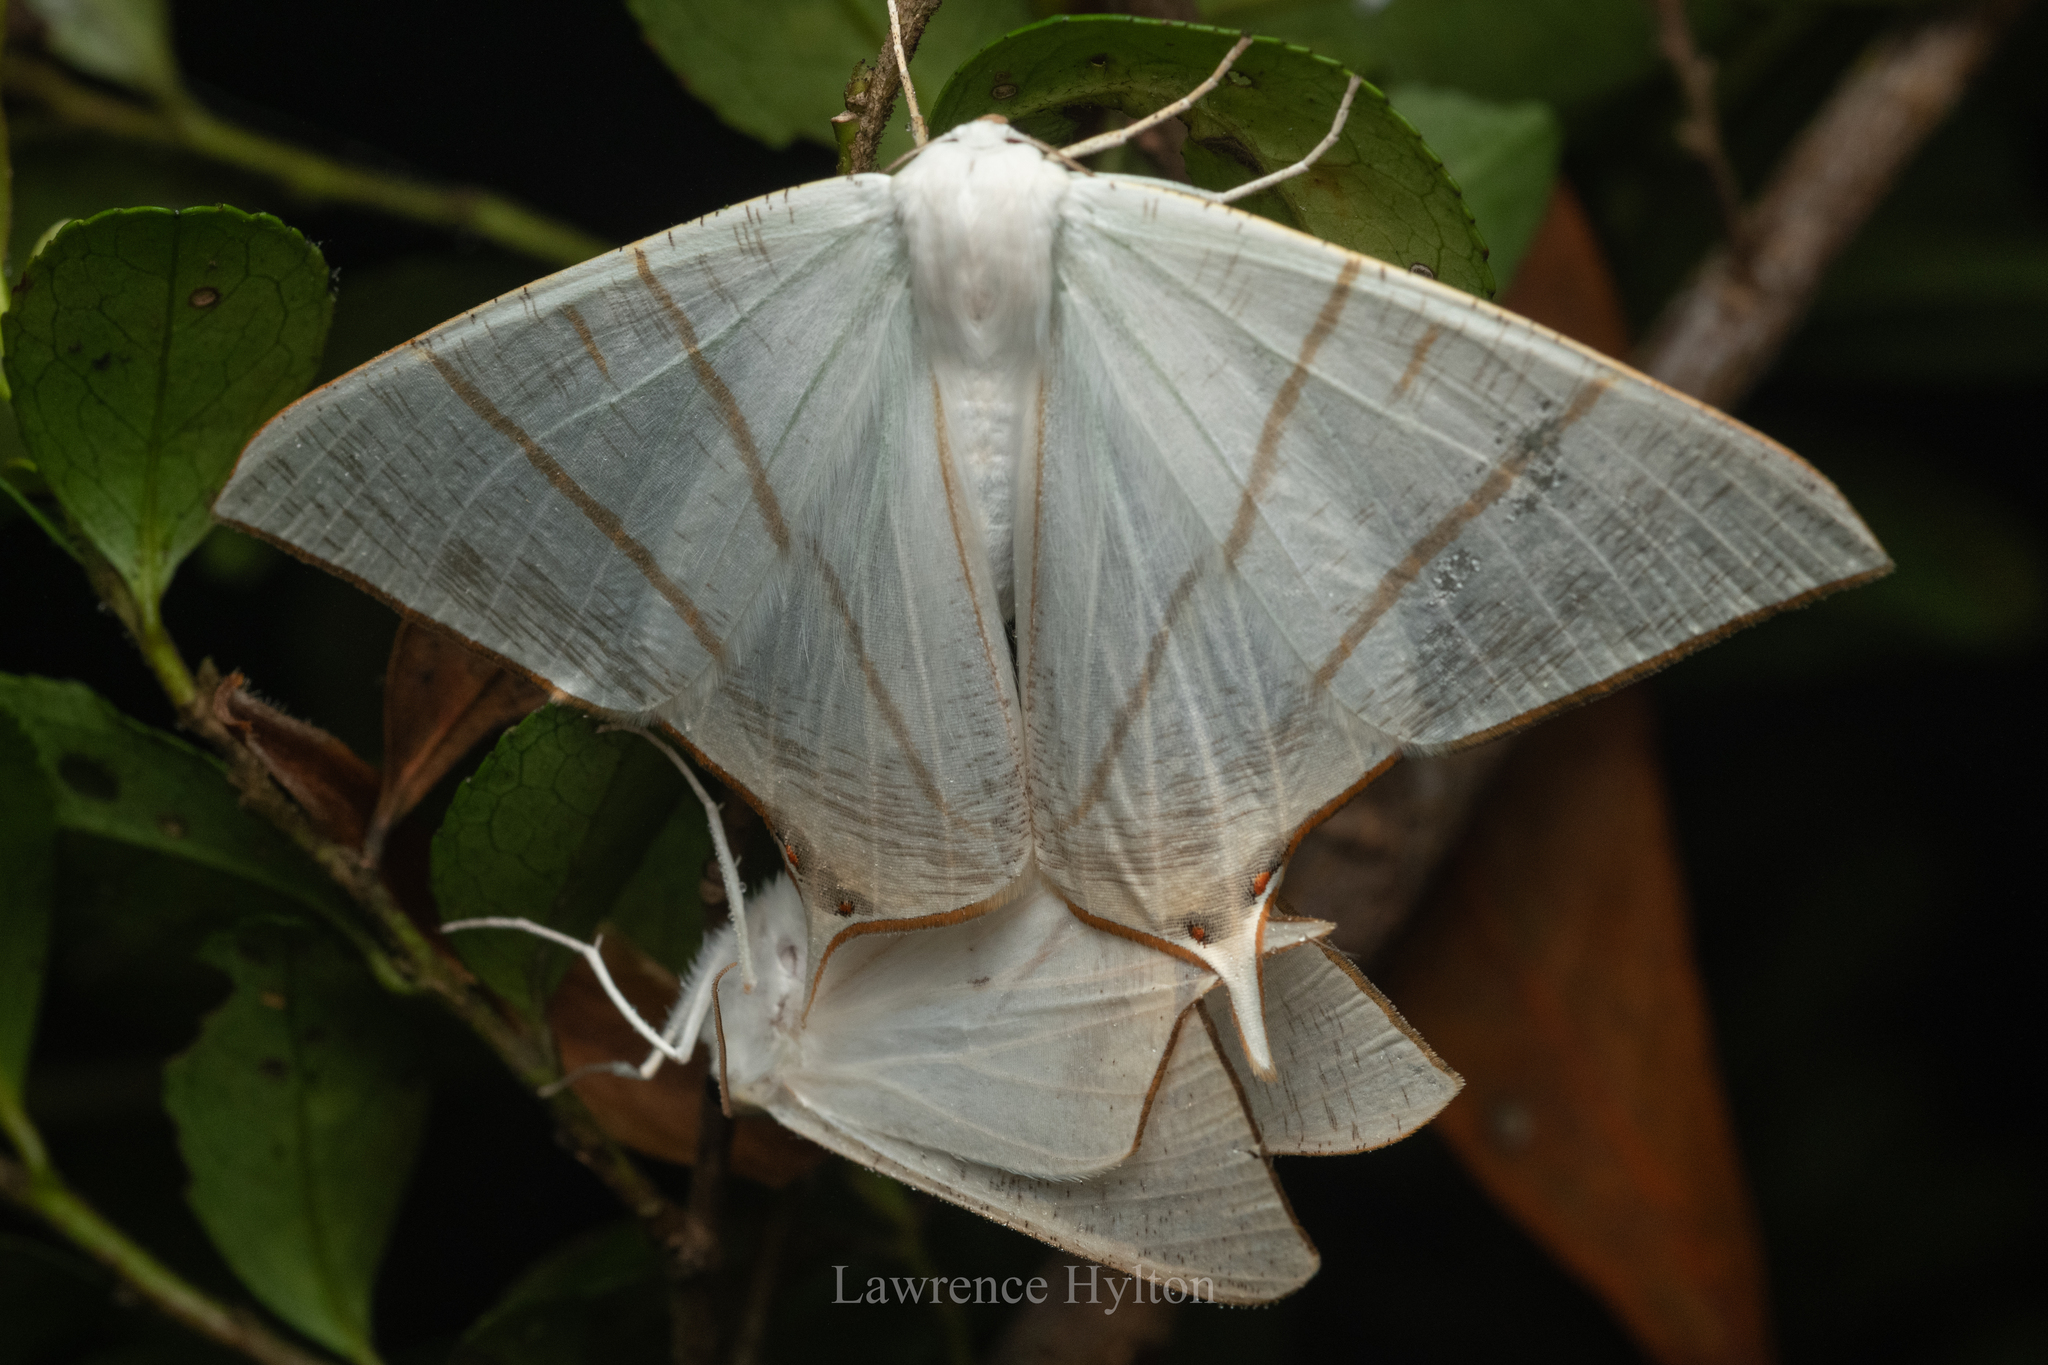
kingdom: Animalia
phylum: Arthropoda
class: Insecta
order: Lepidoptera
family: Geometridae
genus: Ourapteryx
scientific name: Ourapteryx clara
